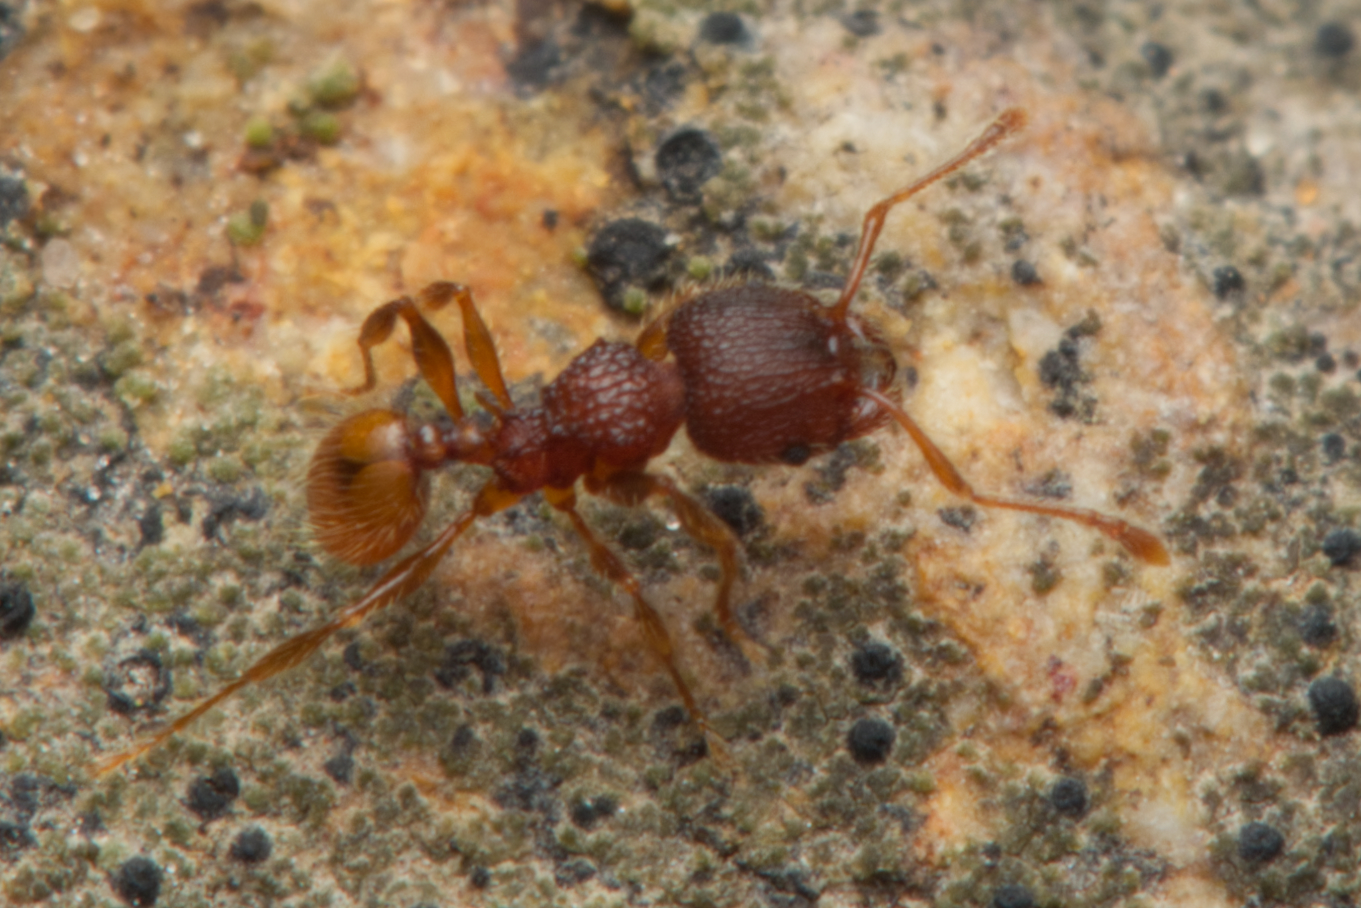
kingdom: Animalia
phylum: Arthropoda
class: Insecta
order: Hymenoptera
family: Formicidae
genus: Pheidole
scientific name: Pheidole longiceps
